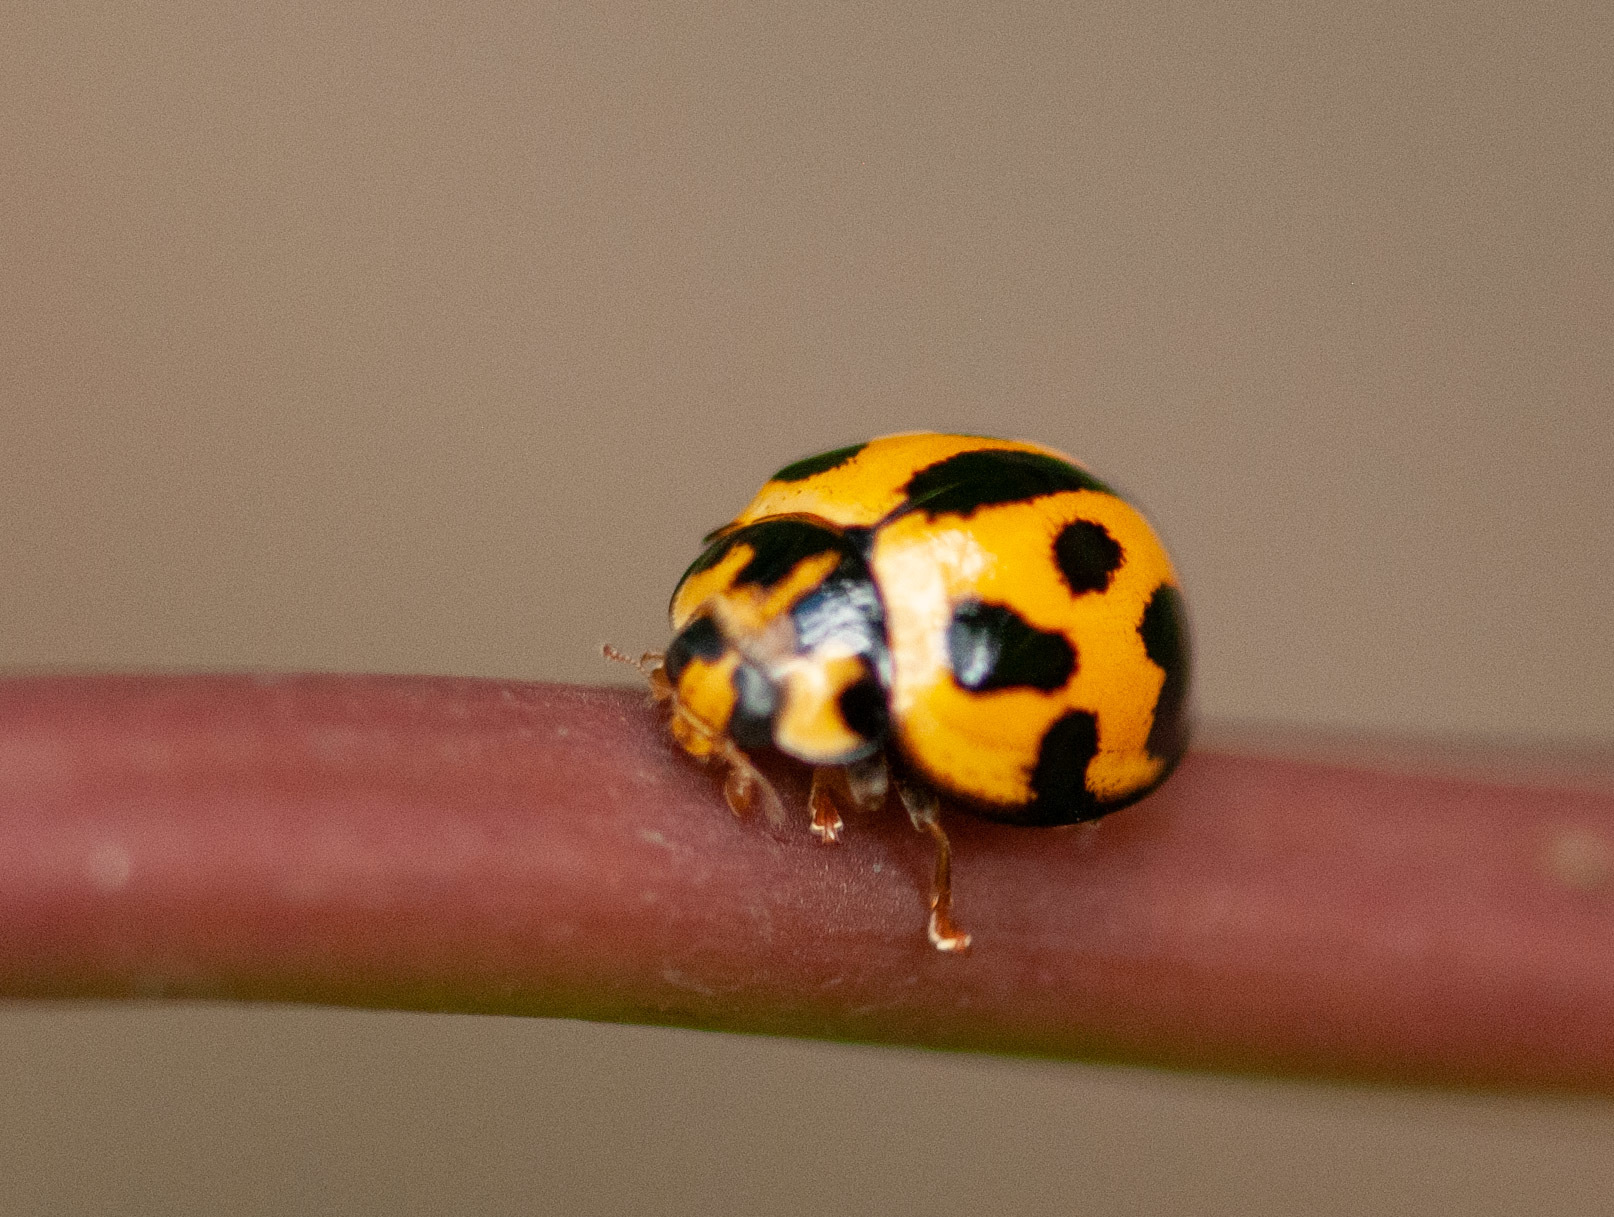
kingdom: Animalia
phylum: Arthropoda
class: Insecta
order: Coleoptera
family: Coccinellidae
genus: Coelophora
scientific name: Coelophora inaequalis
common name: Common australian lady beetle
